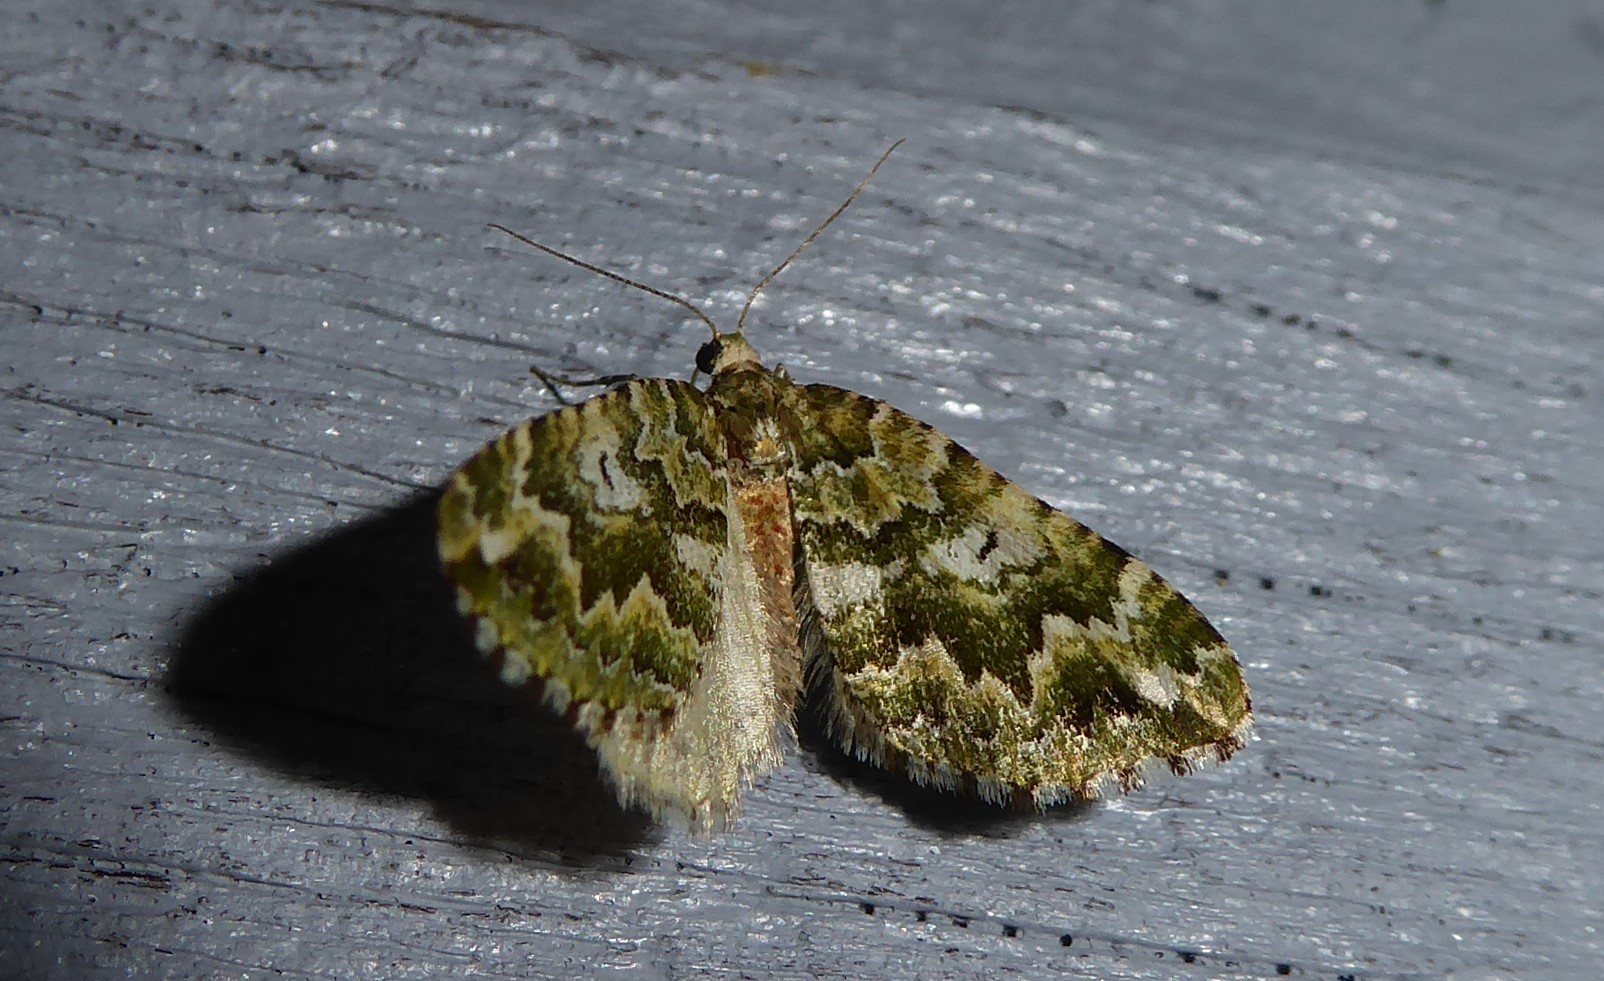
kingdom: Animalia
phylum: Arthropoda
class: Insecta
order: Lepidoptera
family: Geometridae
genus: Asaphodes
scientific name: Asaphodes beata
